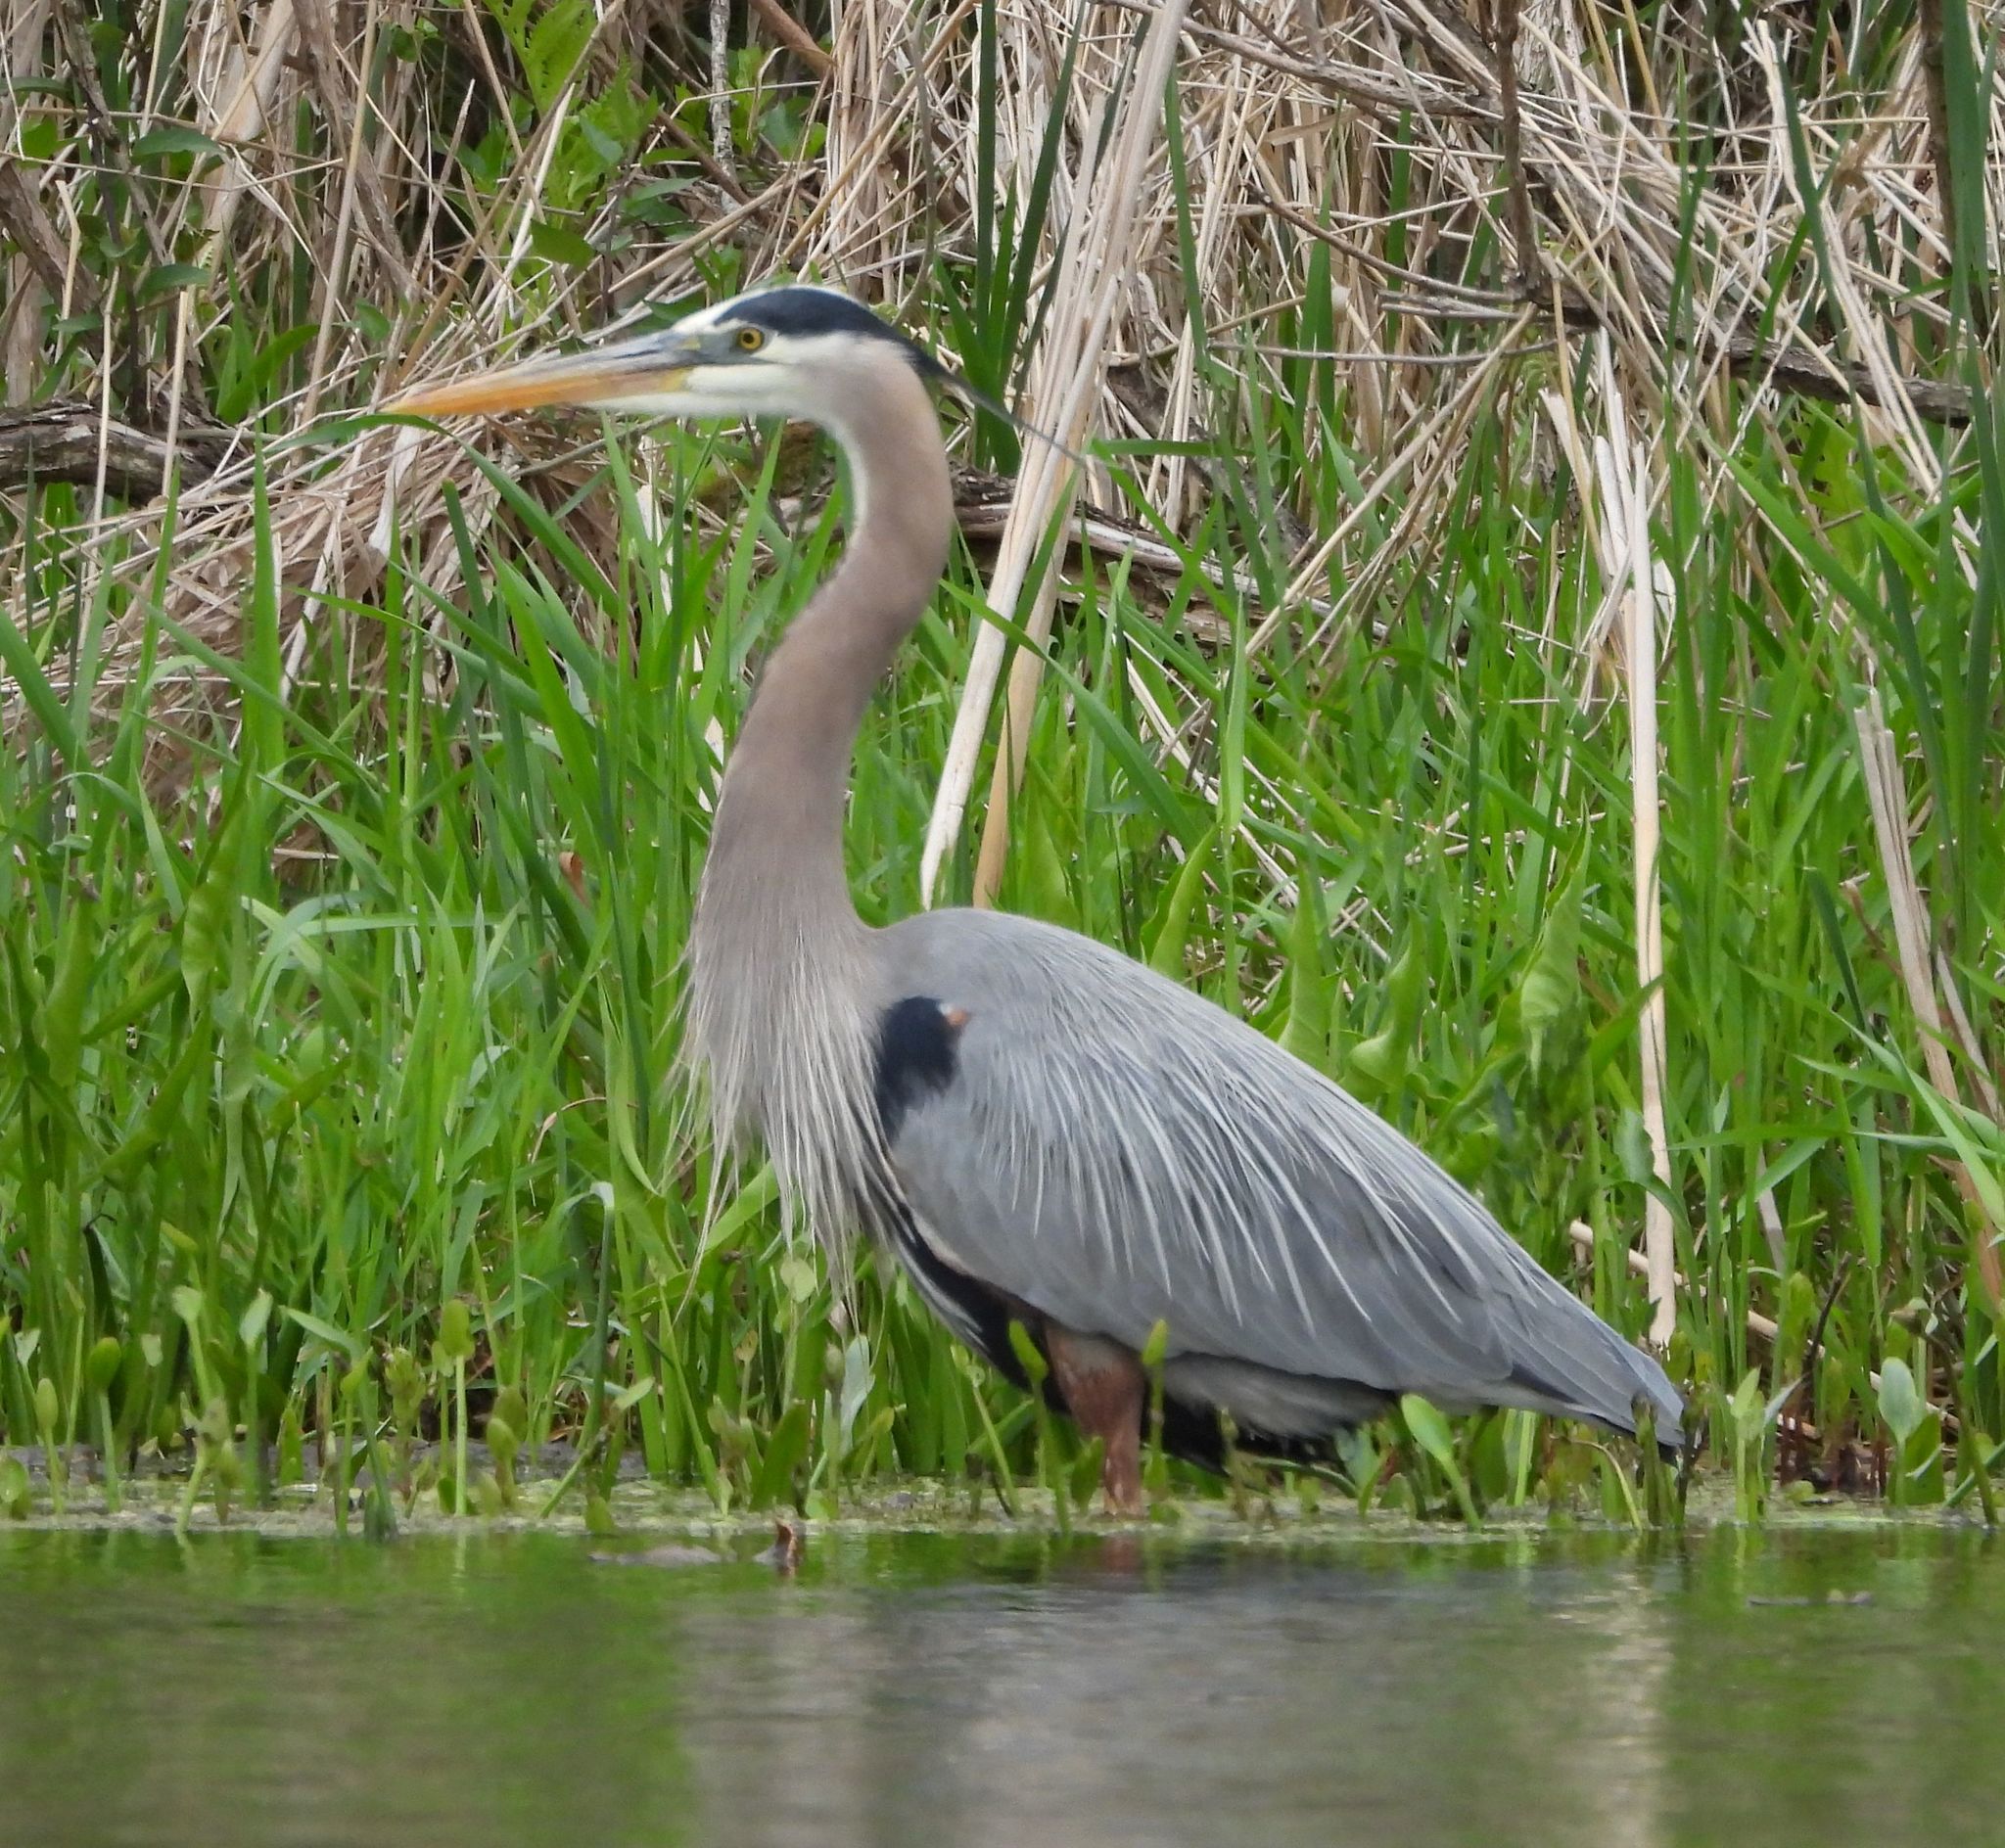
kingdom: Animalia
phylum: Chordata
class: Aves
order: Pelecaniformes
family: Ardeidae
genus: Ardea
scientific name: Ardea herodias
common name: Great blue heron
